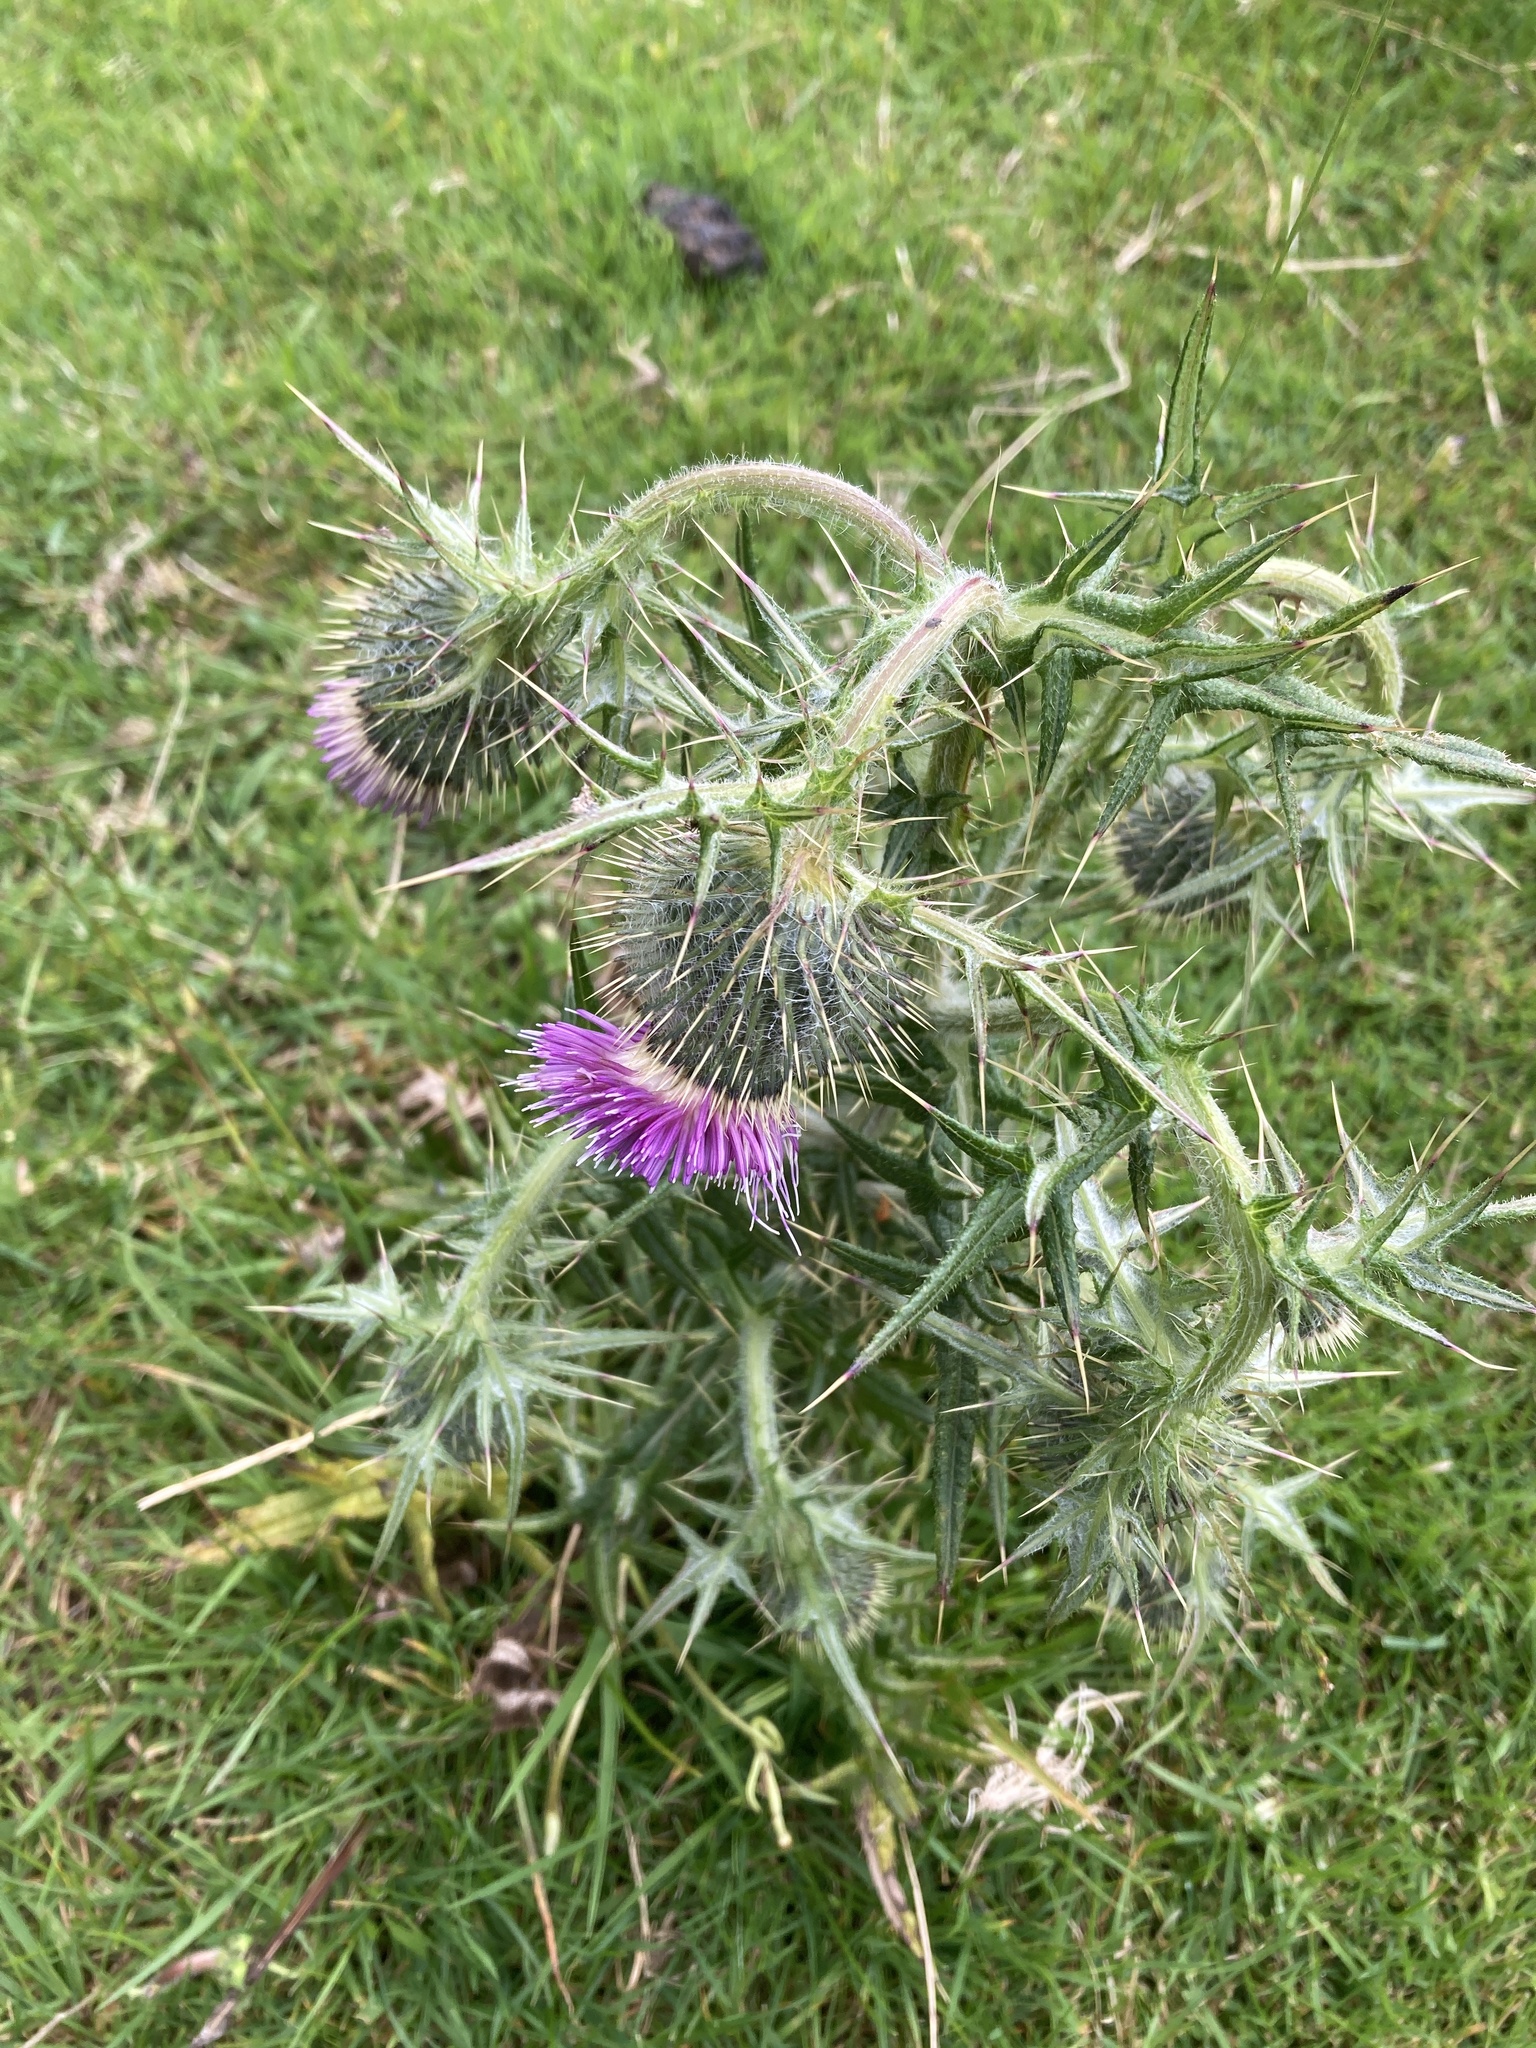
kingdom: Plantae
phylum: Tracheophyta
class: Magnoliopsida
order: Asterales
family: Asteraceae
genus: Cirsium
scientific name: Cirsium vulgare
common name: Bull thistle
